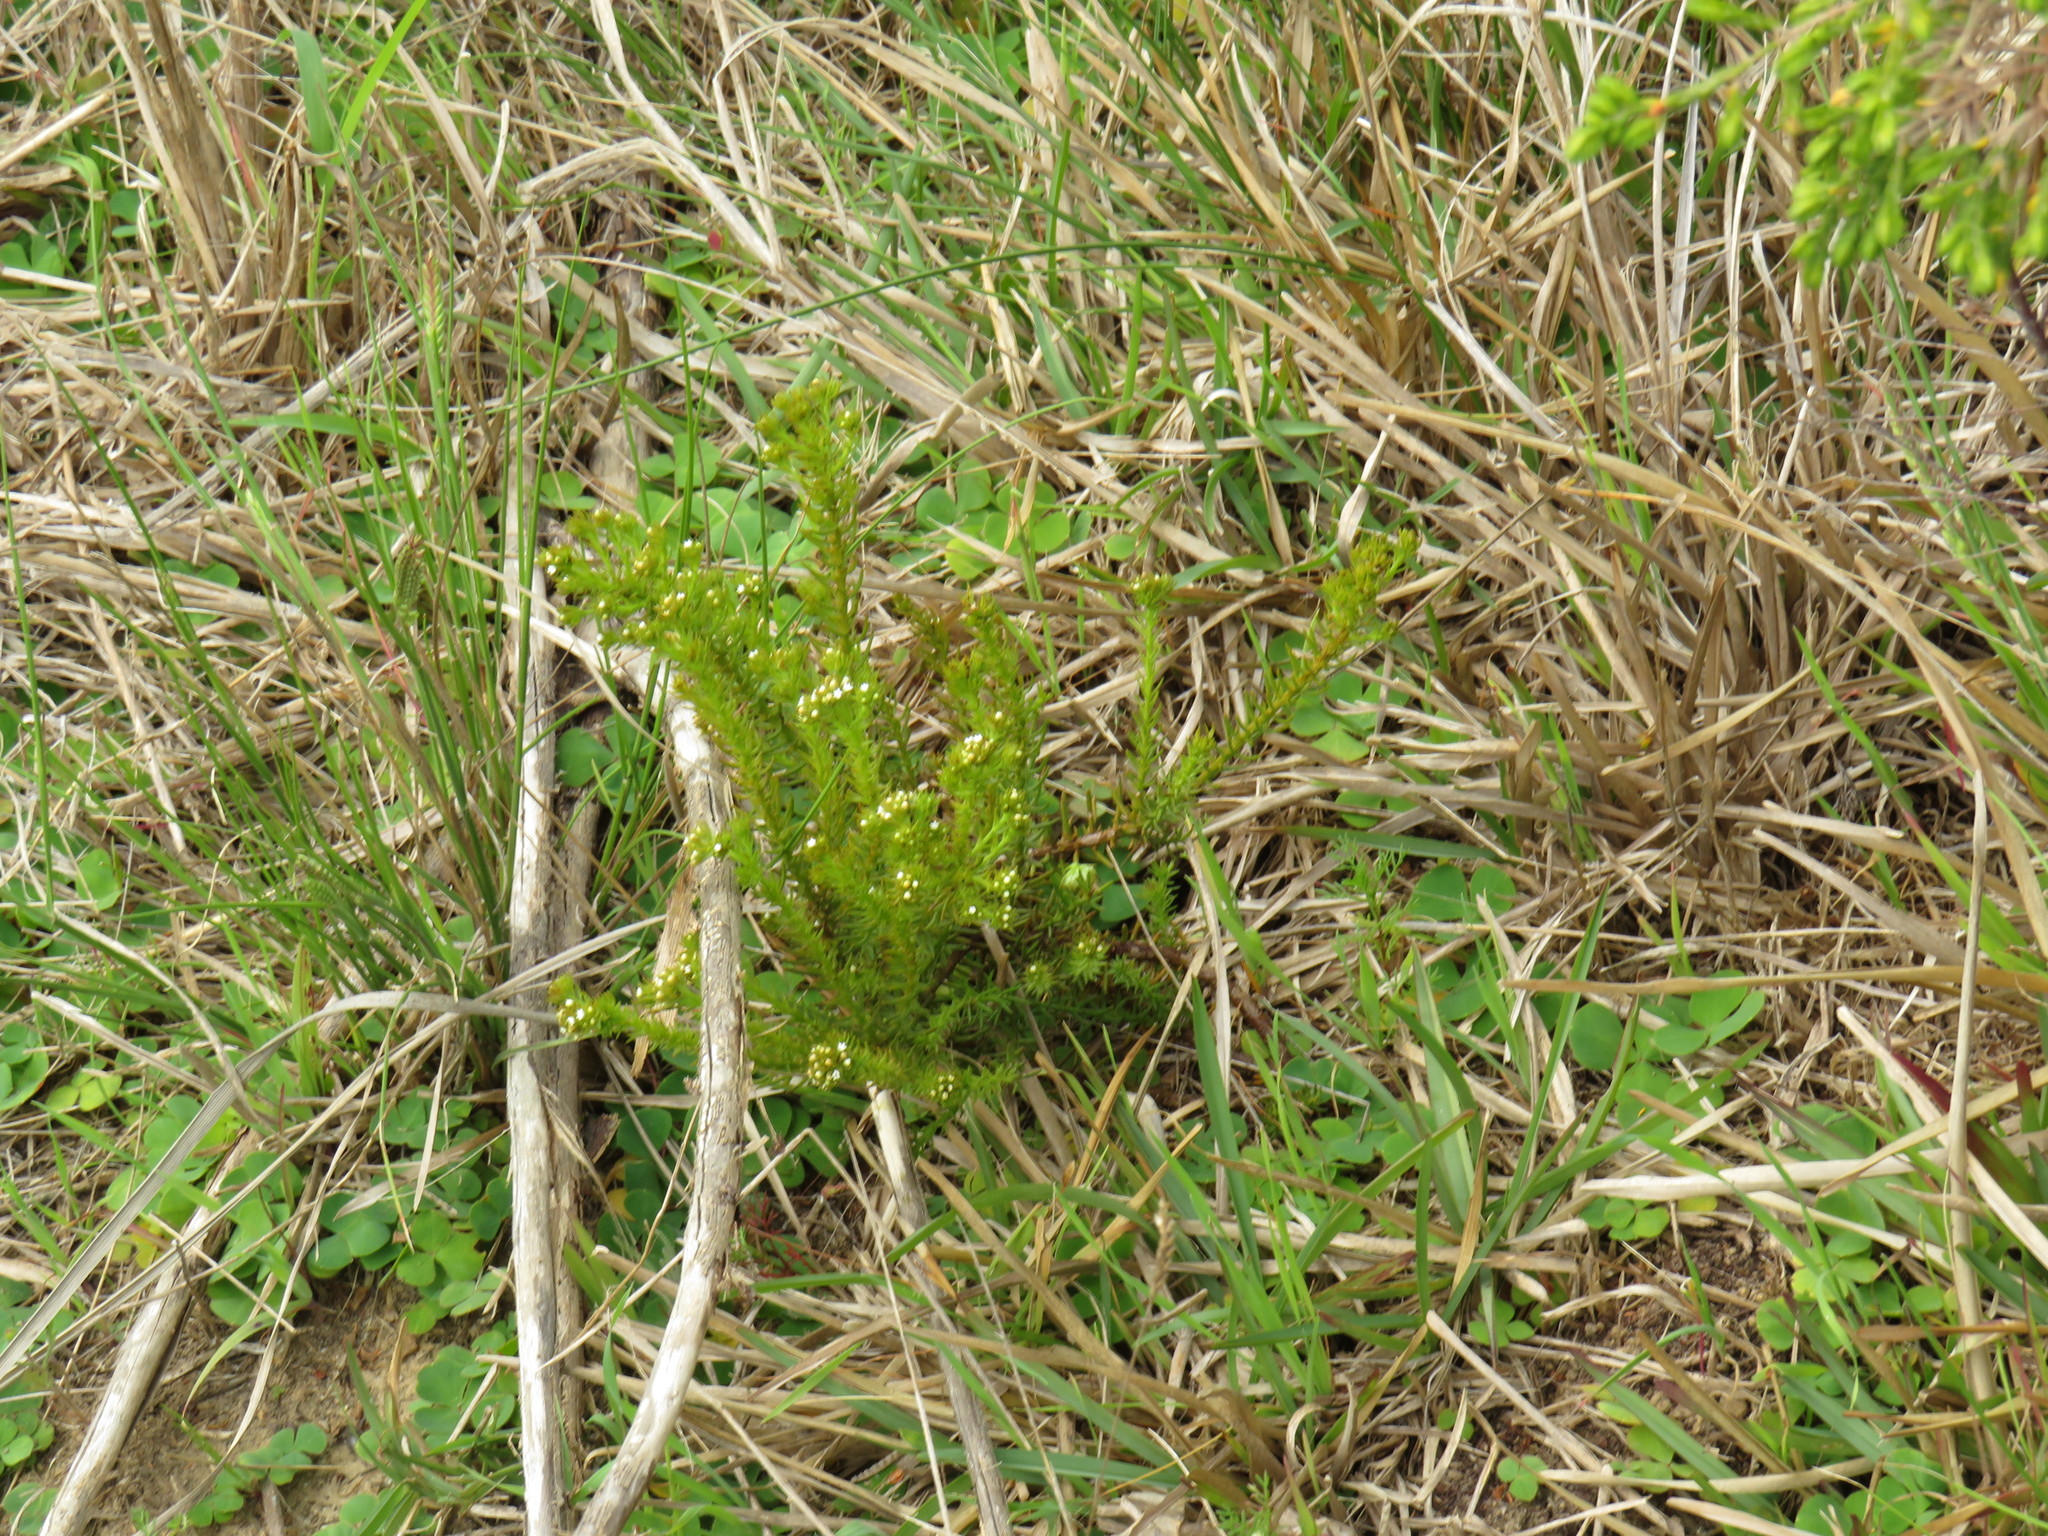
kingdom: Plantae
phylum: Tracheophyta
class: Magnoliopsida
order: Santalales
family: Thesiaceae
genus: Thesium
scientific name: Thesium scabrum
